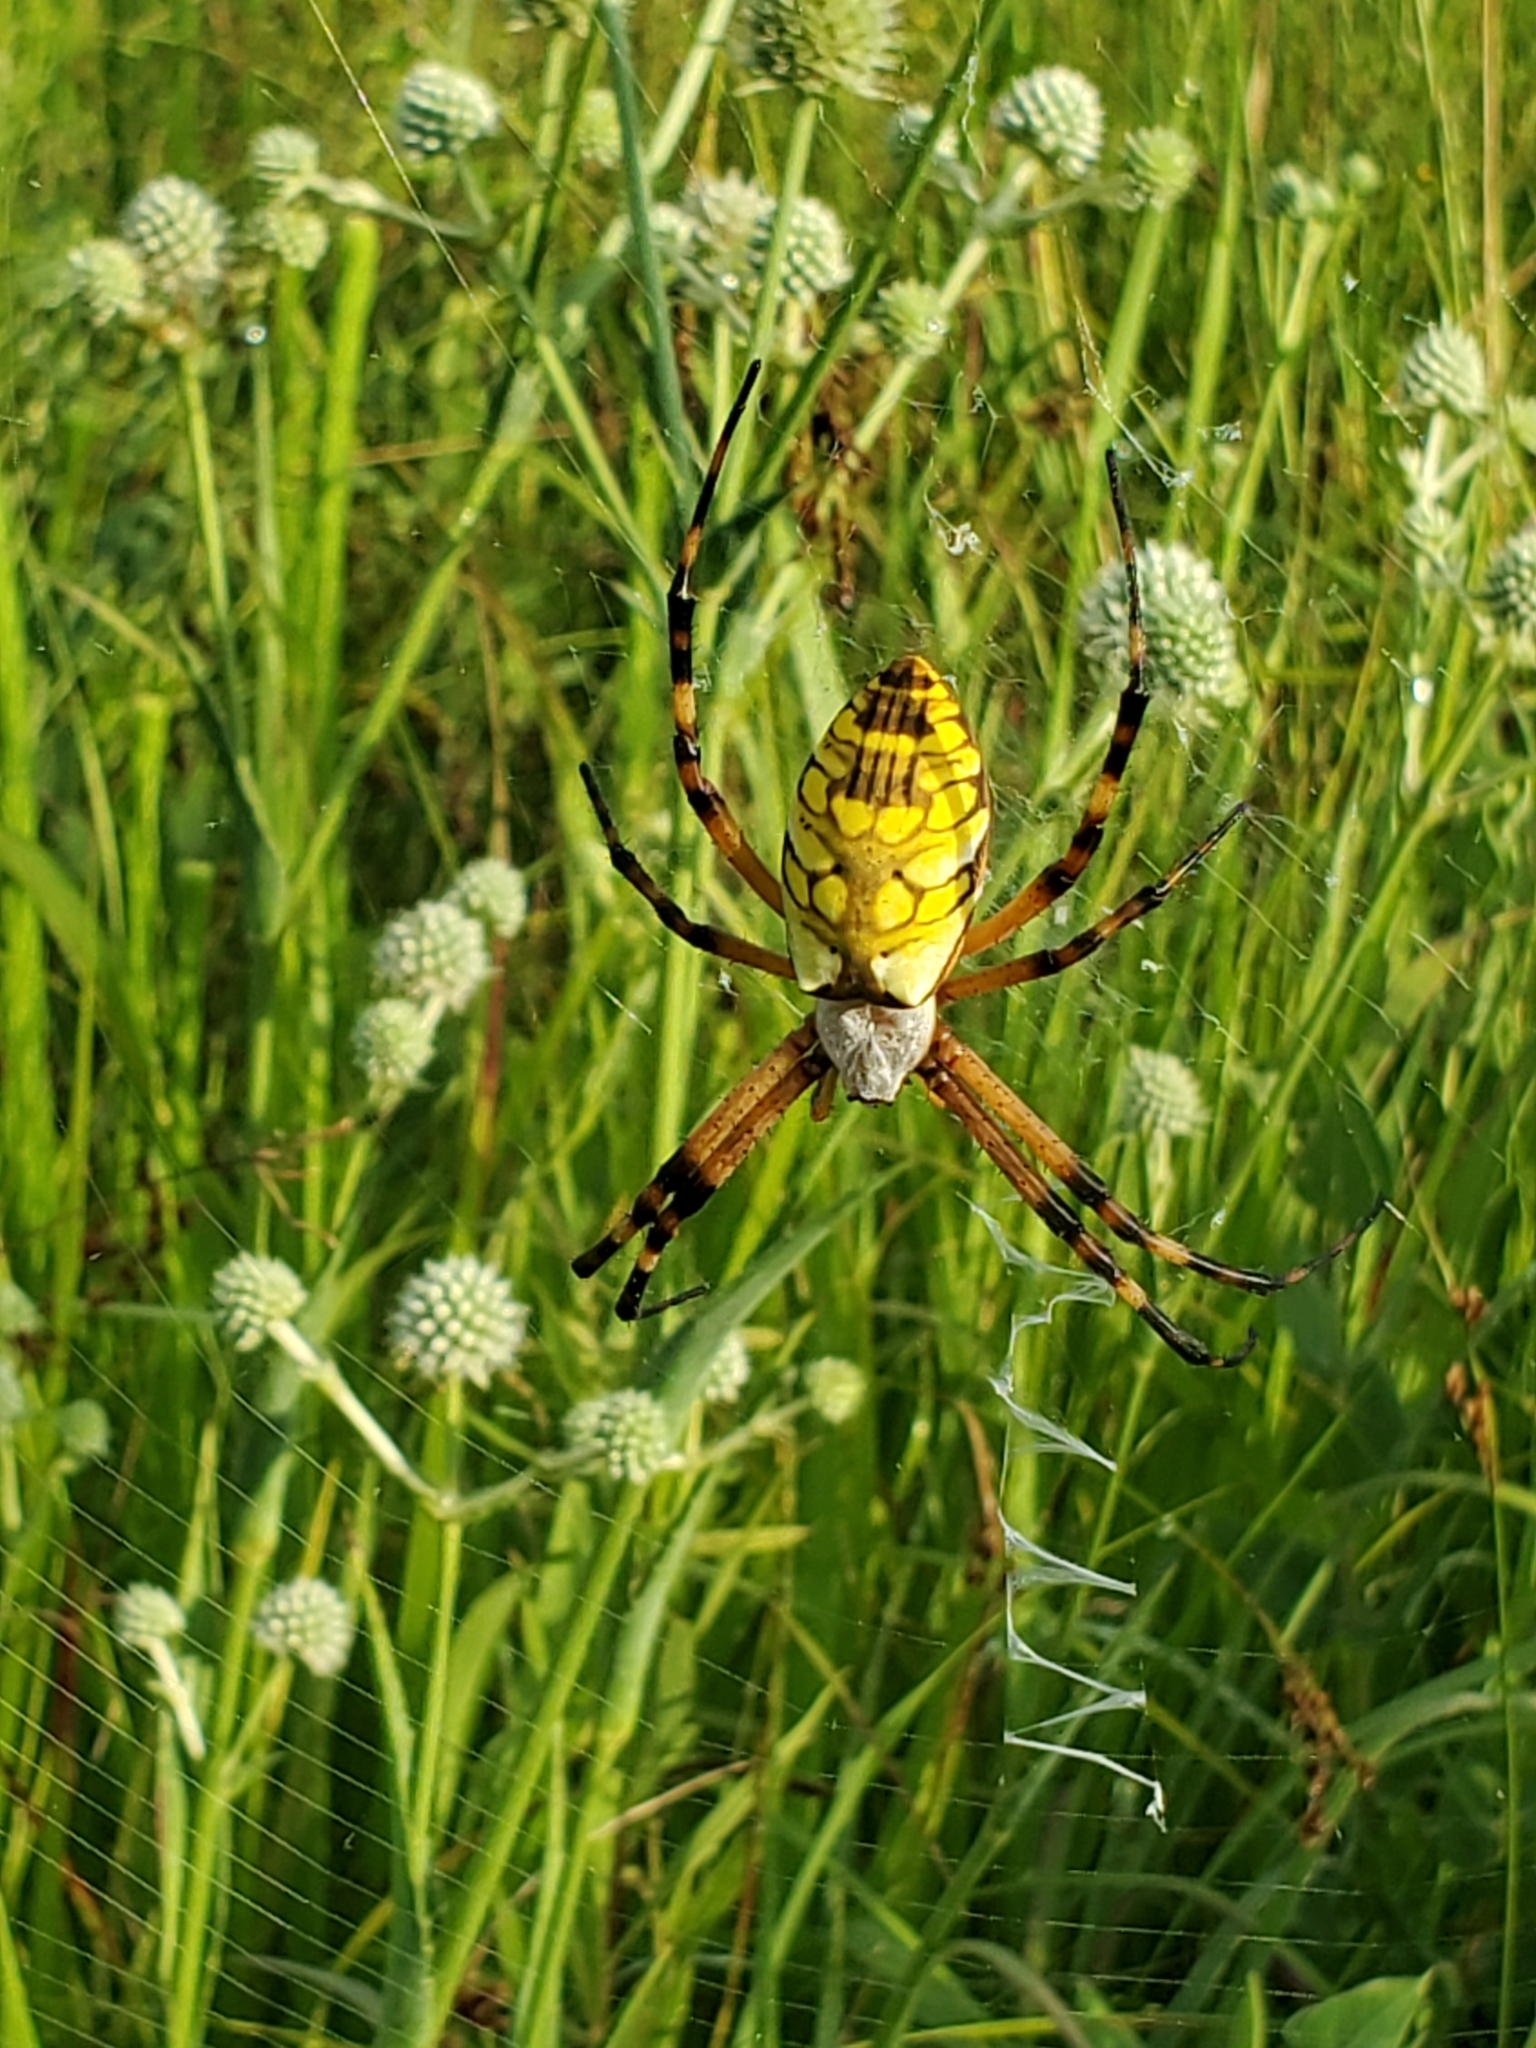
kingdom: Animalia
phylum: Arthropoda
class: Arachnida
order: Araneae
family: Araneidae
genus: Argiope
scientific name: Argiope aurantia
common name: Orb weavers
